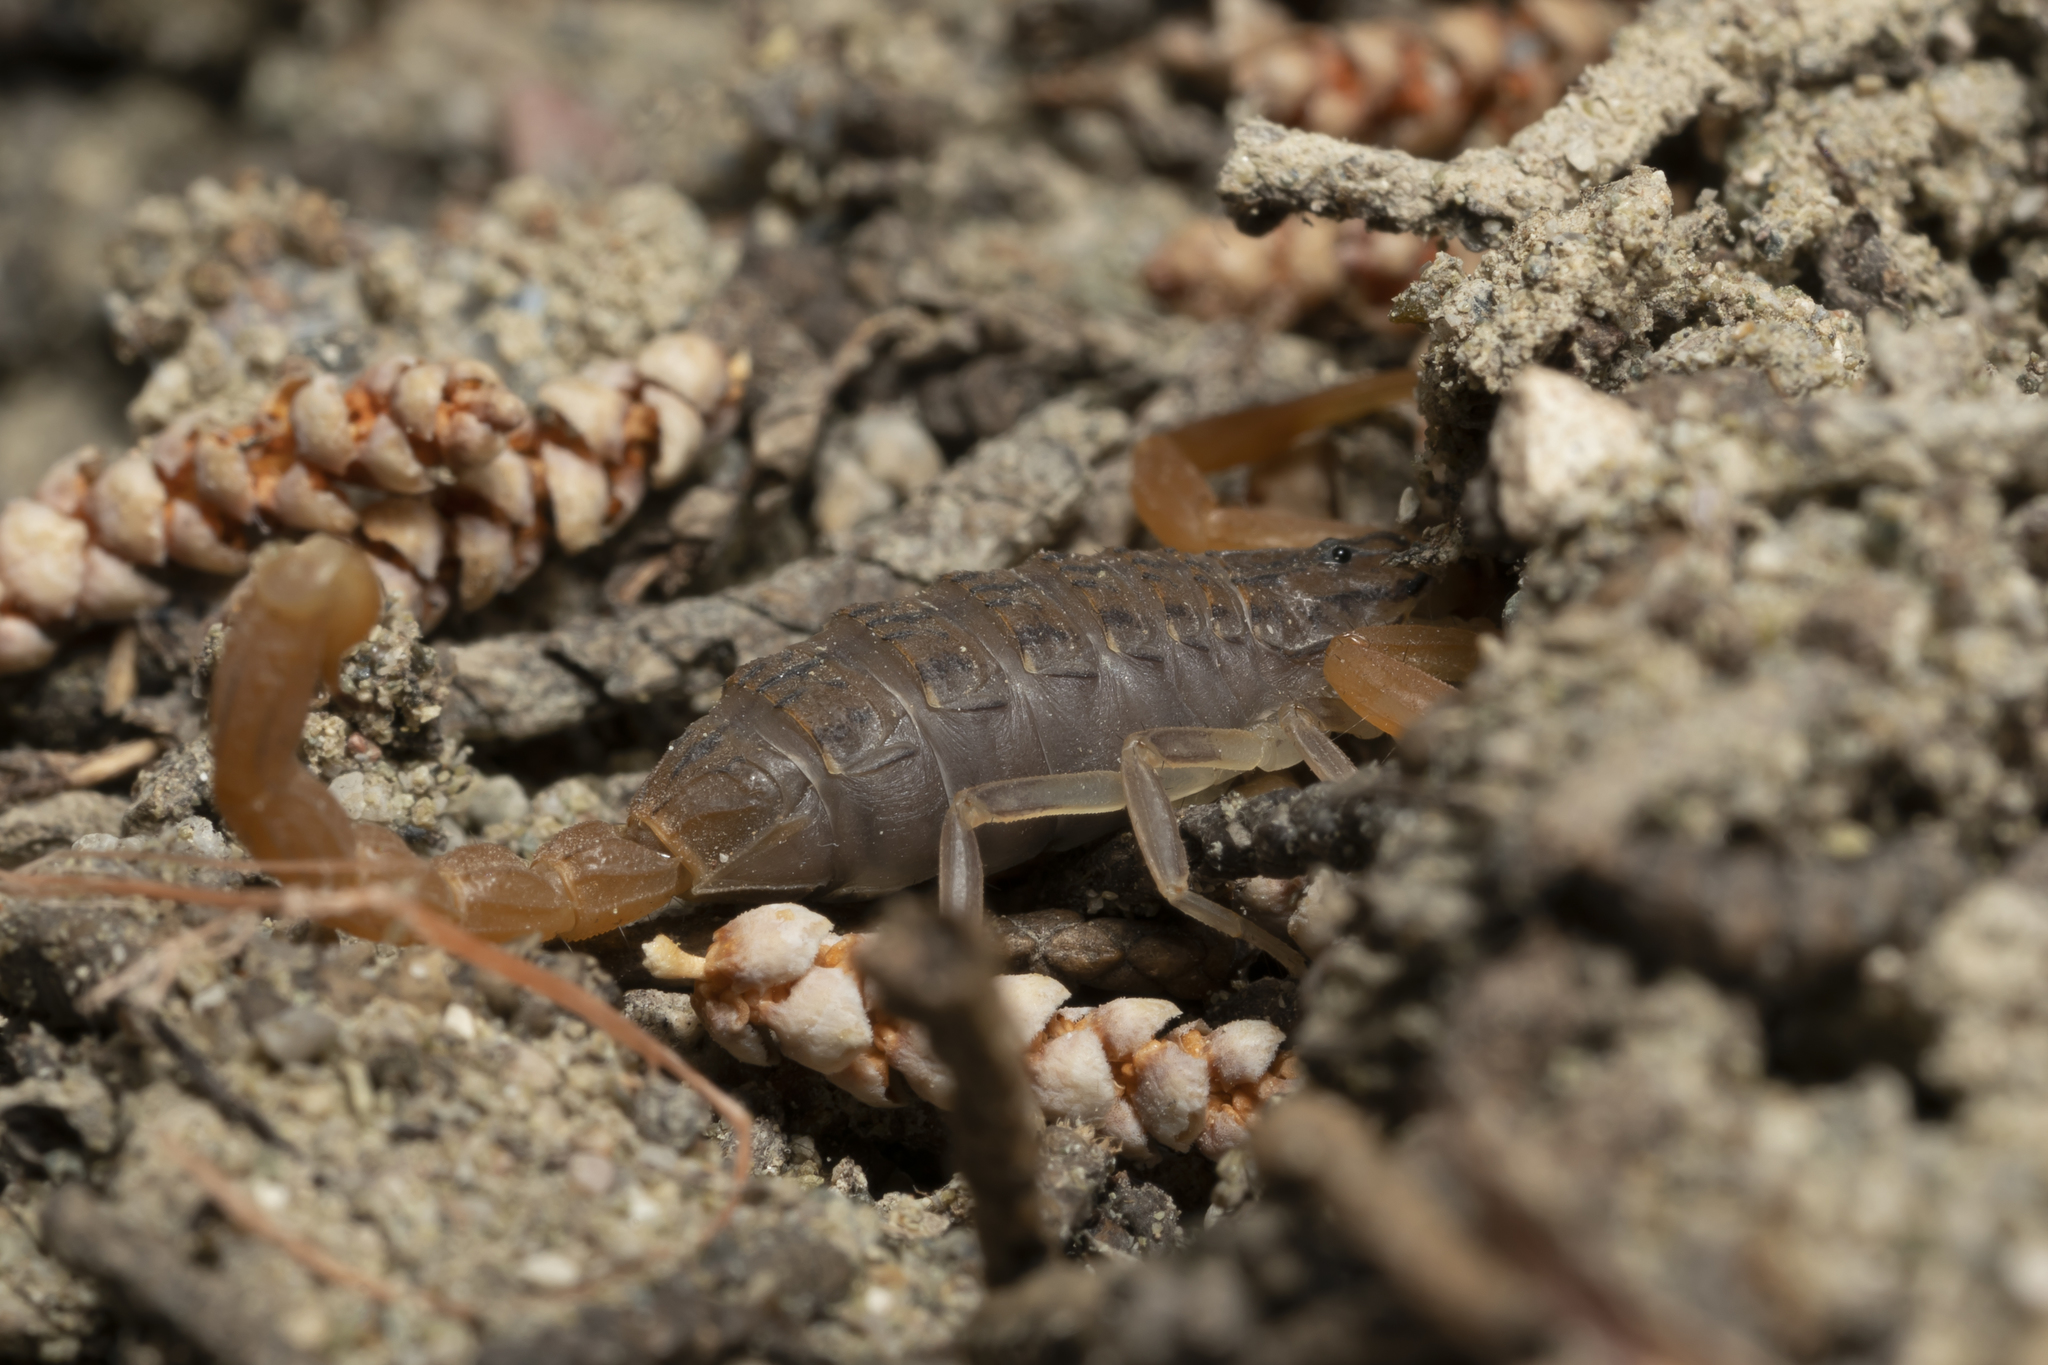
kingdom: Animalia
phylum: Arthropoda
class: Arachnida
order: Scorpiones
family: Buthidae
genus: Aegaeobuthus
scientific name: Aegaeobuthus gibbosus
